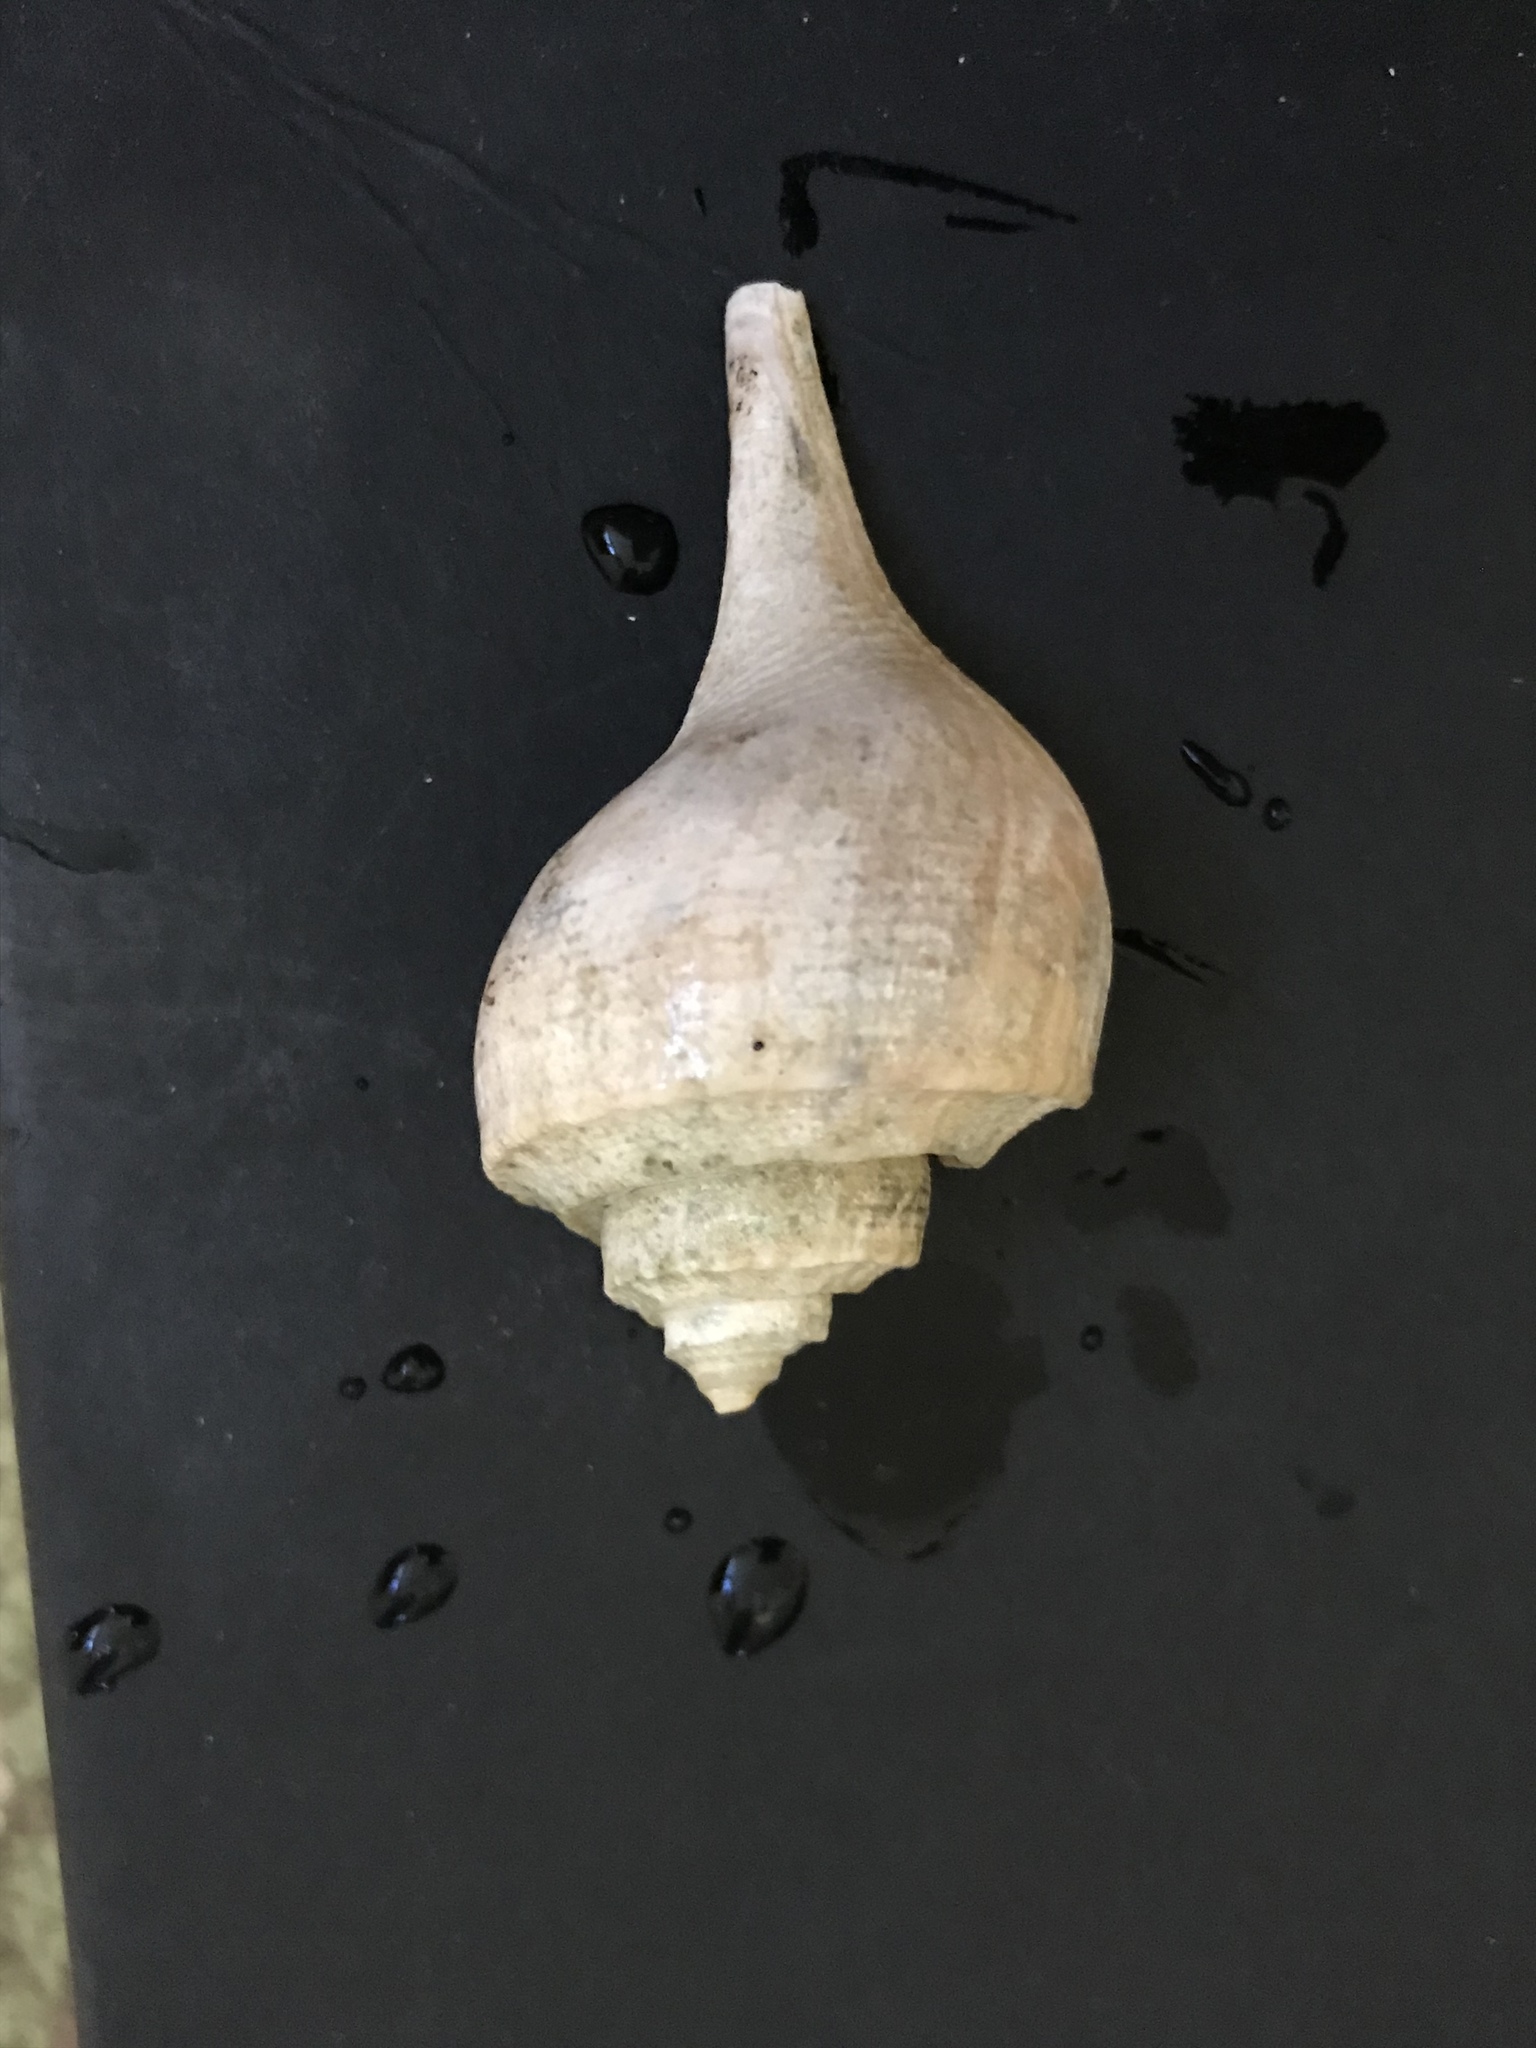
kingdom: Animalia
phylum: Mollusca
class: Gastropoda
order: Neogastropoda
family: Busyconidae
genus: Busycotypus
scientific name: Busycotypus canaliculatus
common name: Channeled whelk
